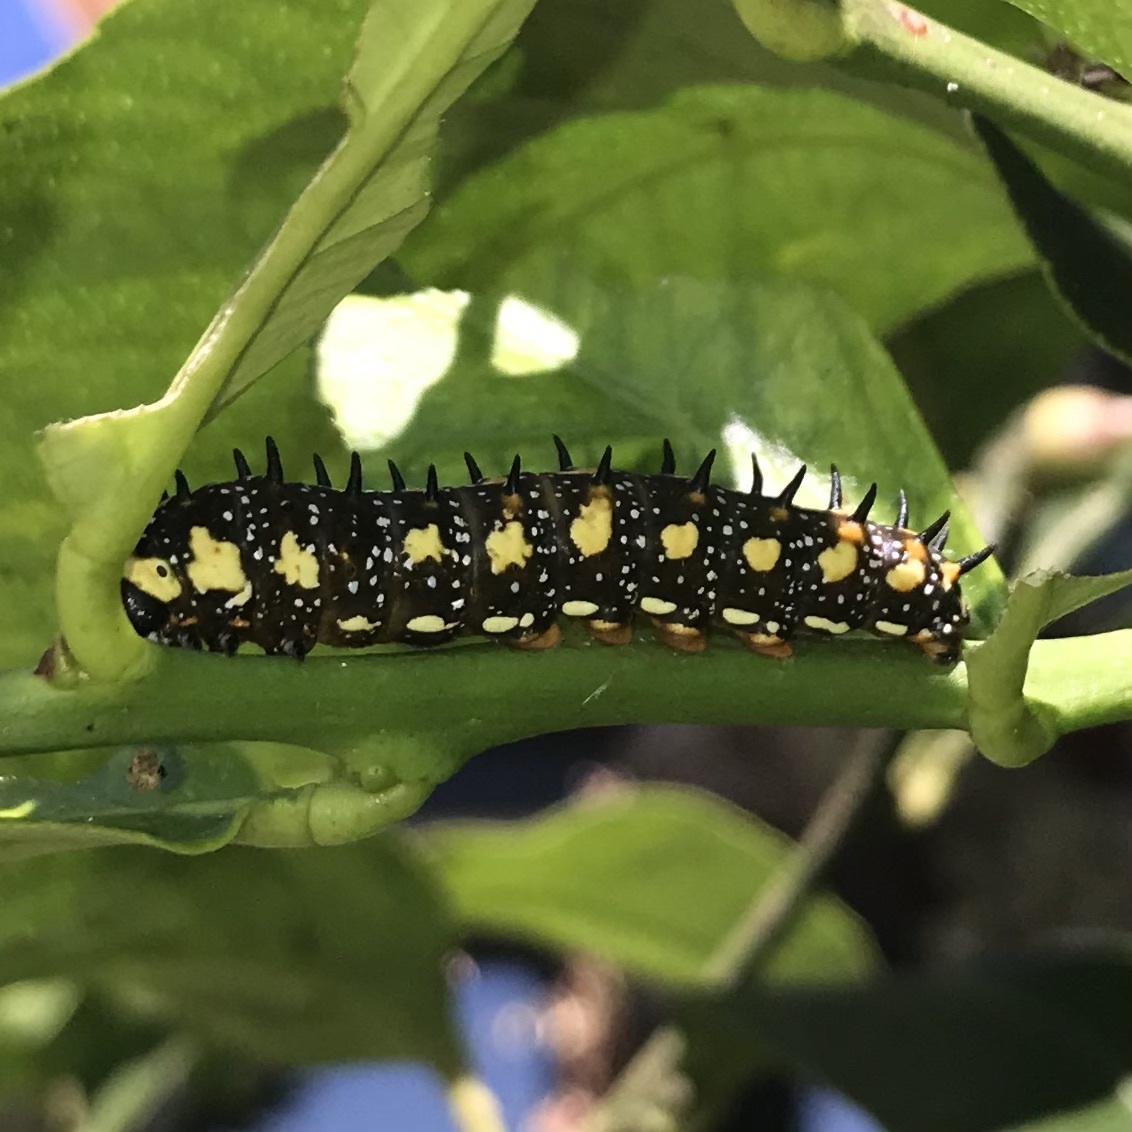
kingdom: Animalia
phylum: Arthropoda
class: Insecta
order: Lepidoptera
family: Papilionidae
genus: Papilio
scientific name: Papilio anactus
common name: Dingy swallowtail
